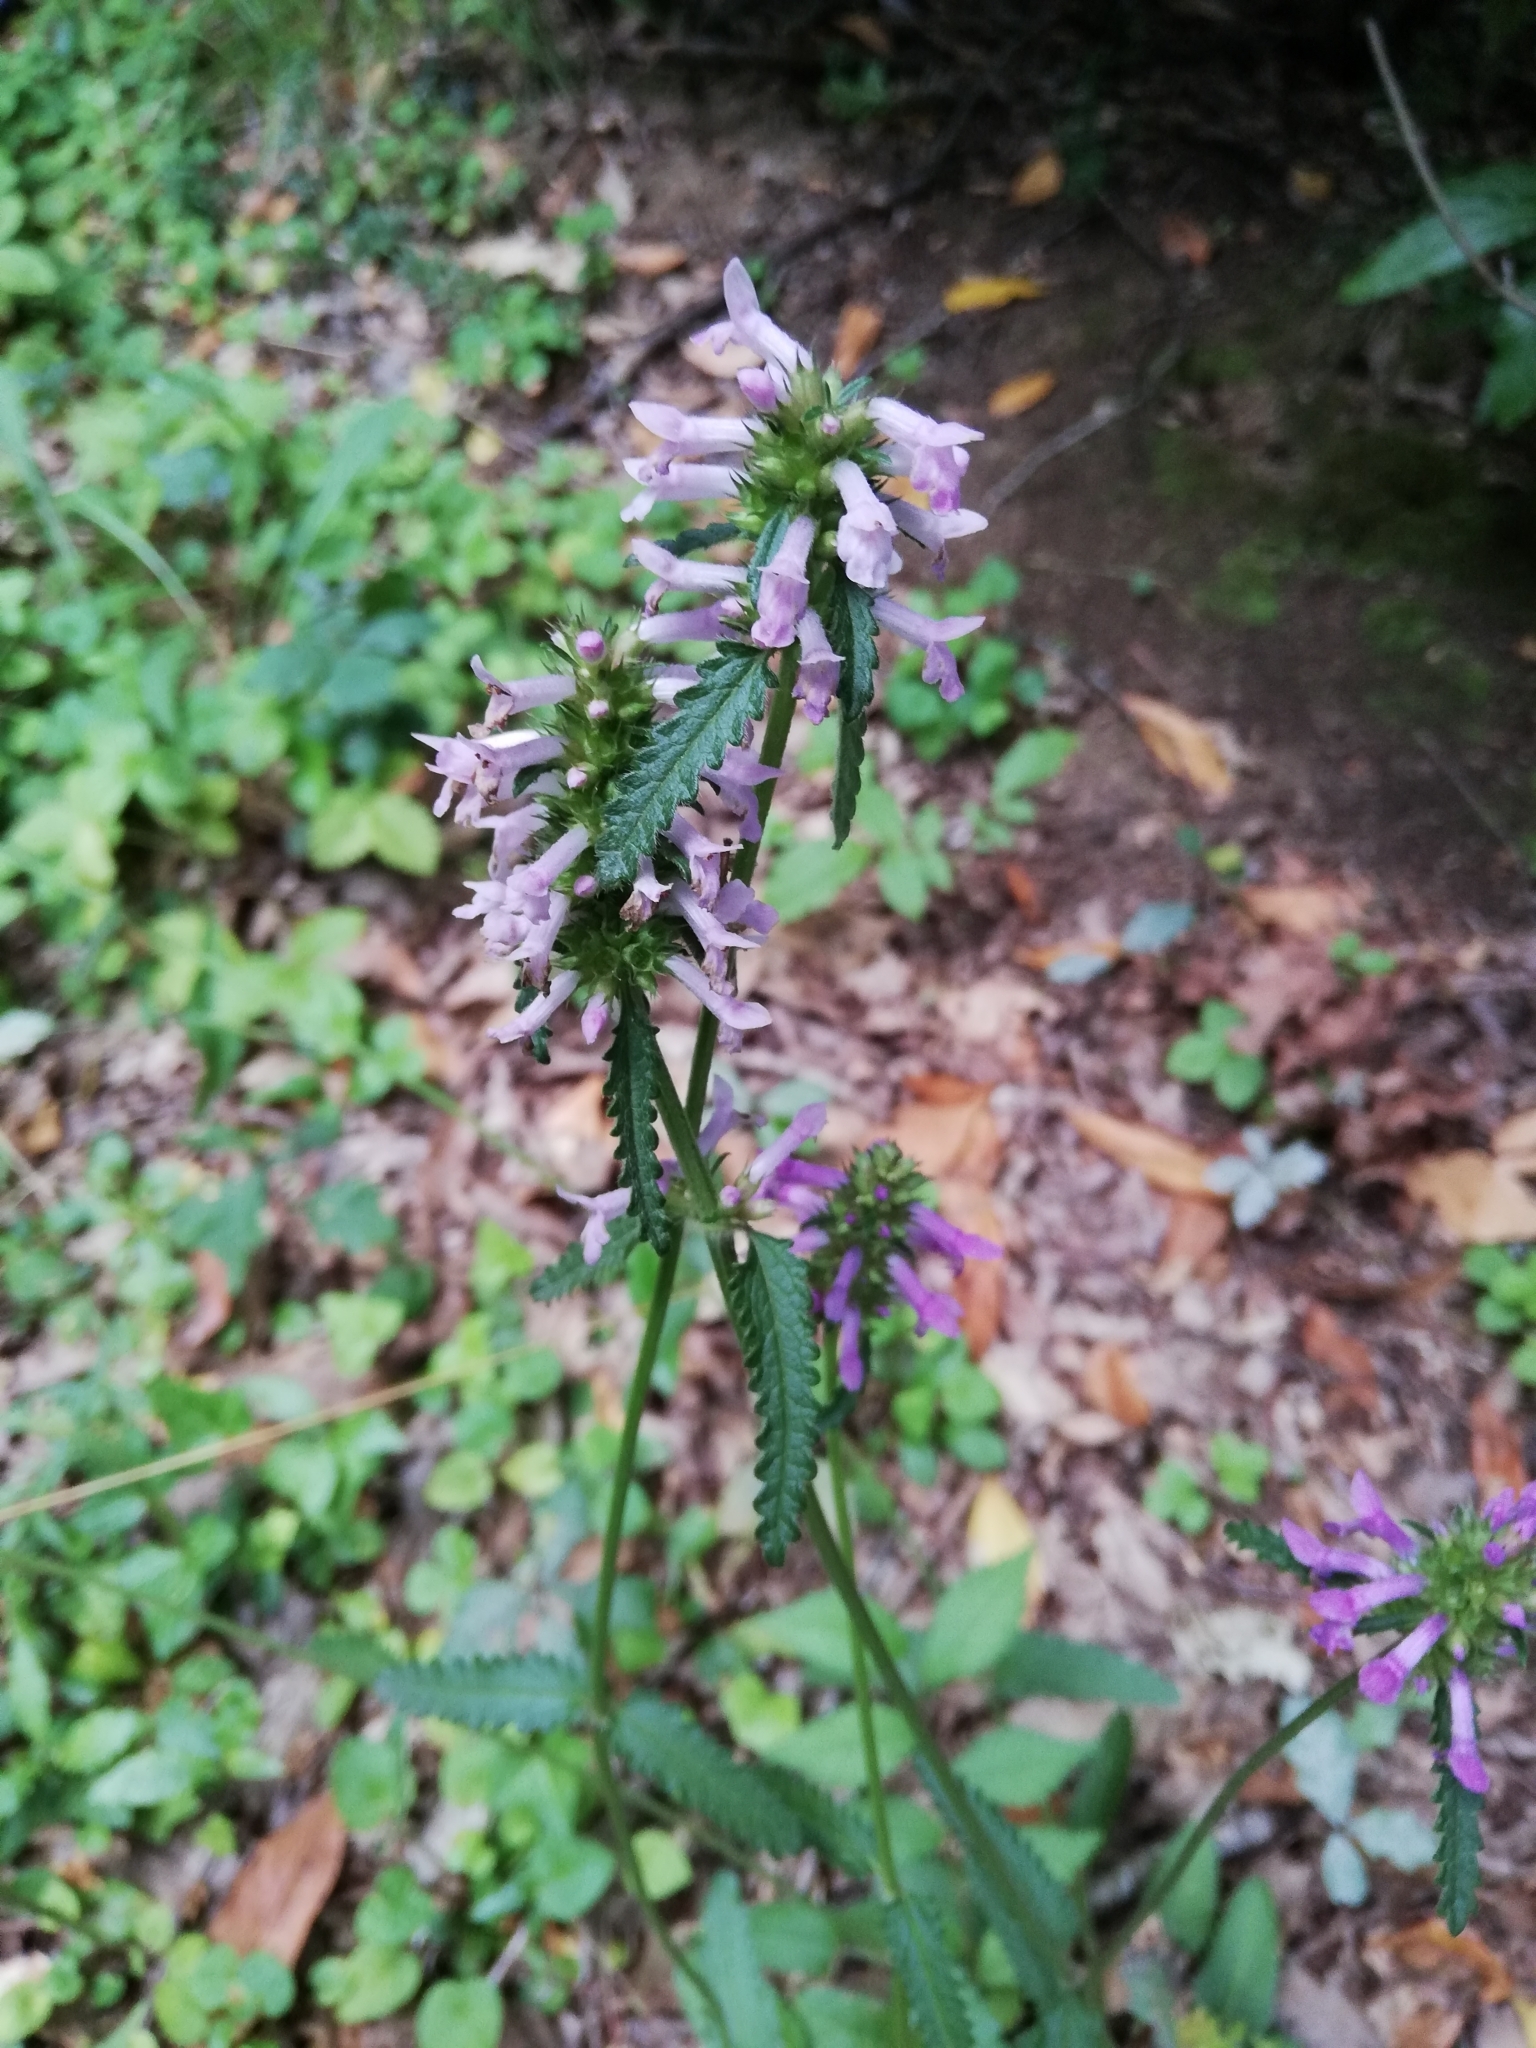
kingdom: Plantae
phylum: Tracheophyta
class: Magnoliopsida
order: Lamiales
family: Lamiaceae
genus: Betonica
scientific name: Betonica officinalis
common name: Bishop's-wort
